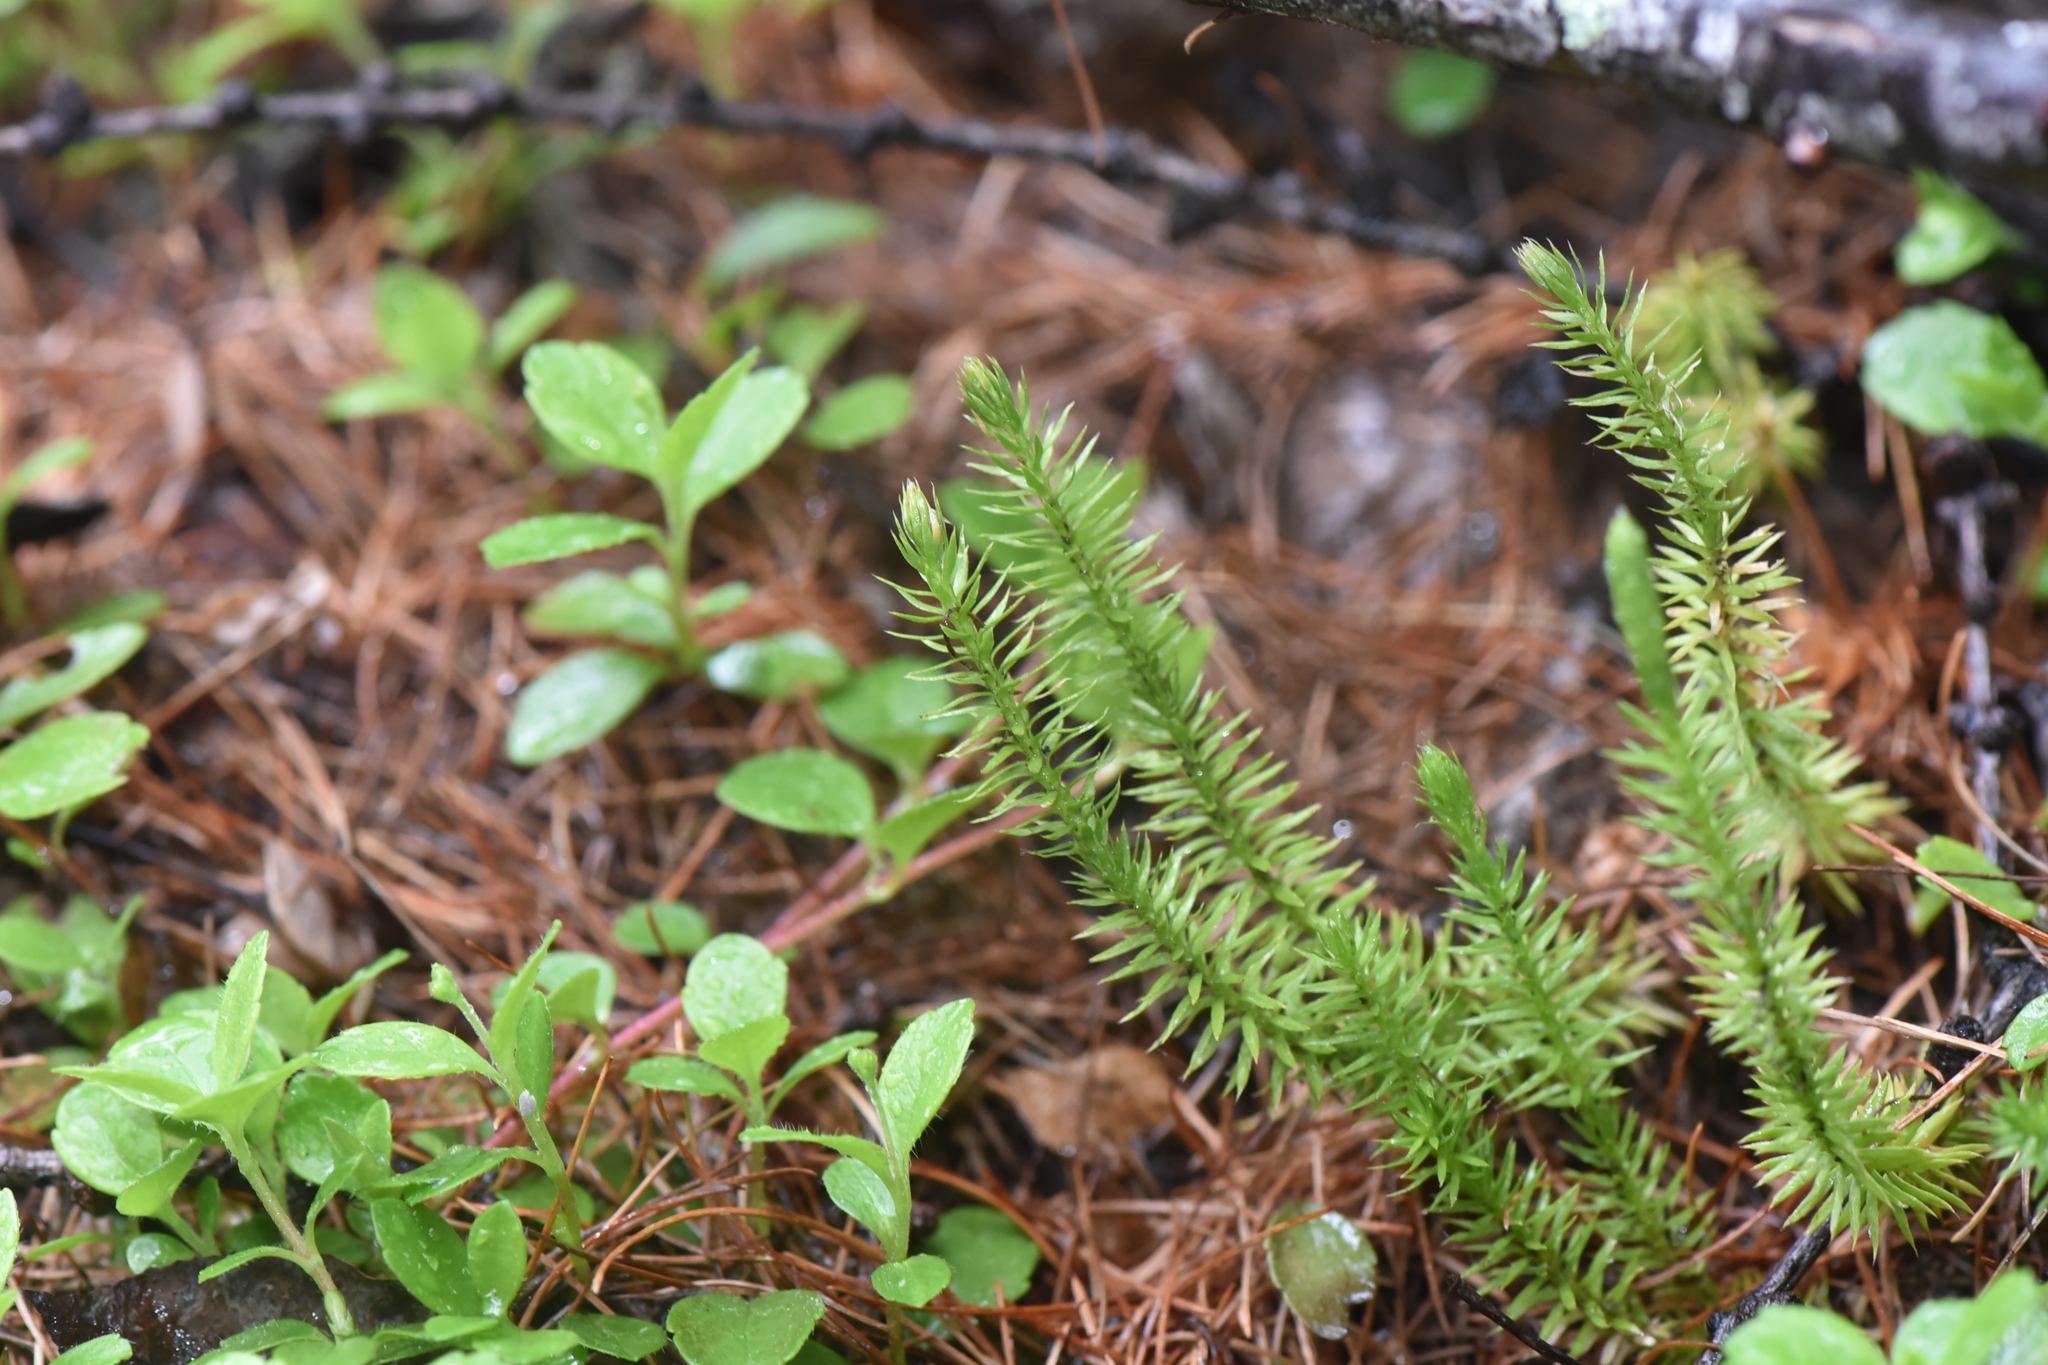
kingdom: Plantae
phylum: Tracheophyta
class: Lycopodiopsida
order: Lycopodiales
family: Lycopodiaceae
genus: Spinulum
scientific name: Spinulum annotinum
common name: Interrupted club-moss
